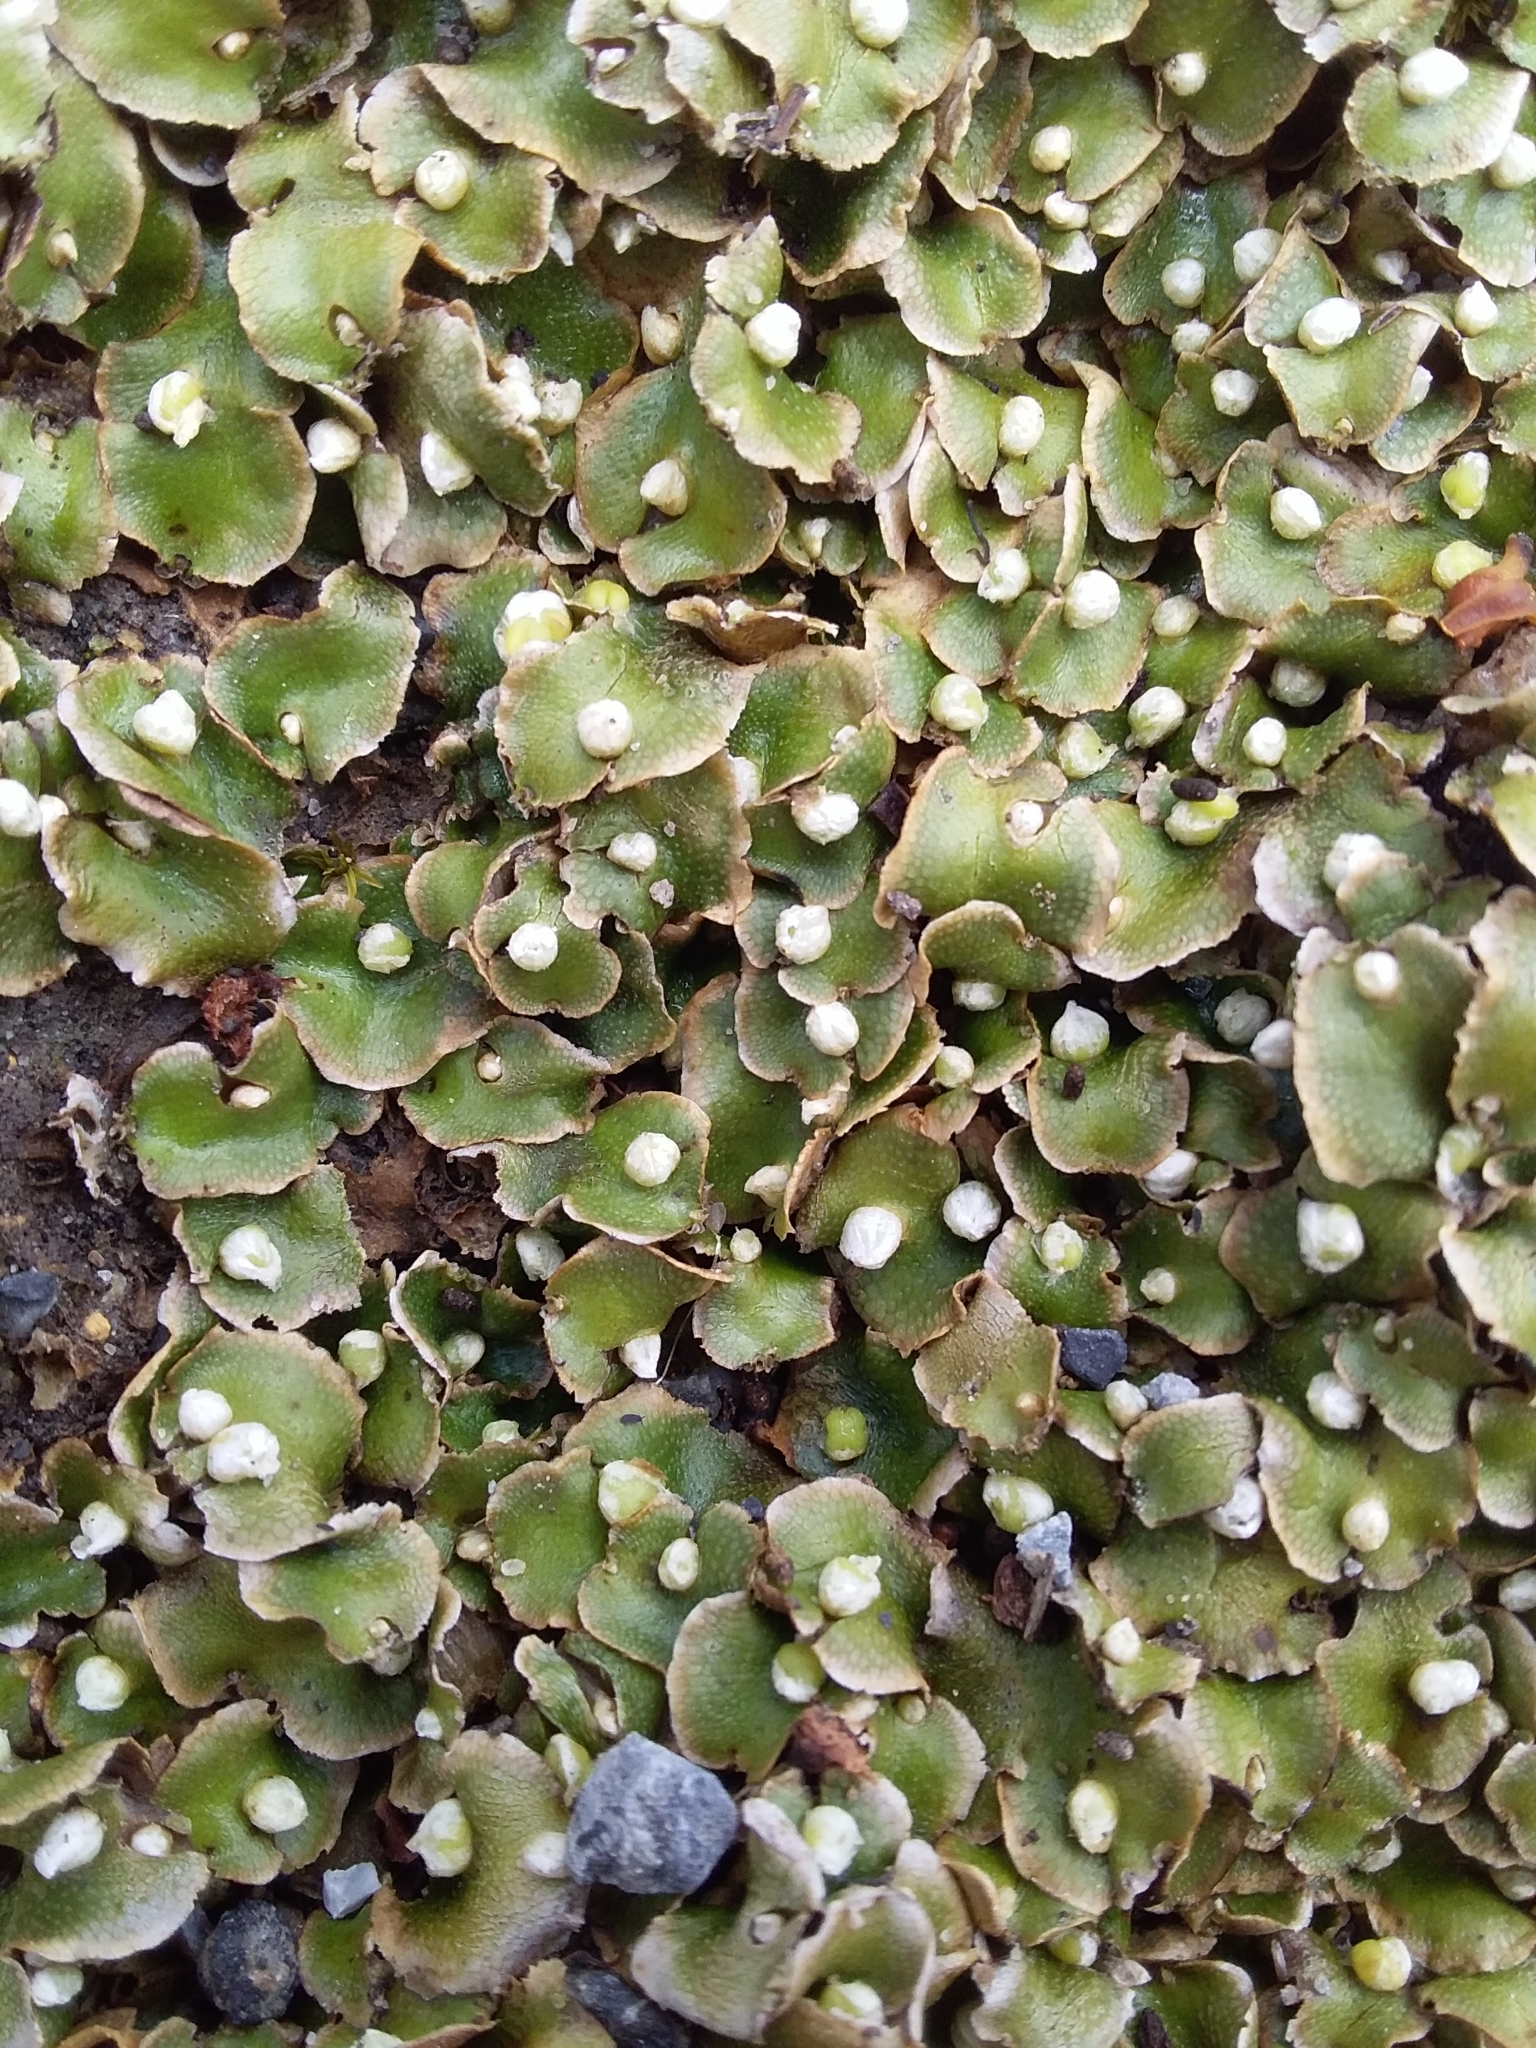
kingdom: Plantae
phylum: Marchantiophyta
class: Marchantiopsida
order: Lunulariales
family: Lunulariaceae
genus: Lunularia
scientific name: Lunularia cruciata
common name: Crescent-cup liverwort
